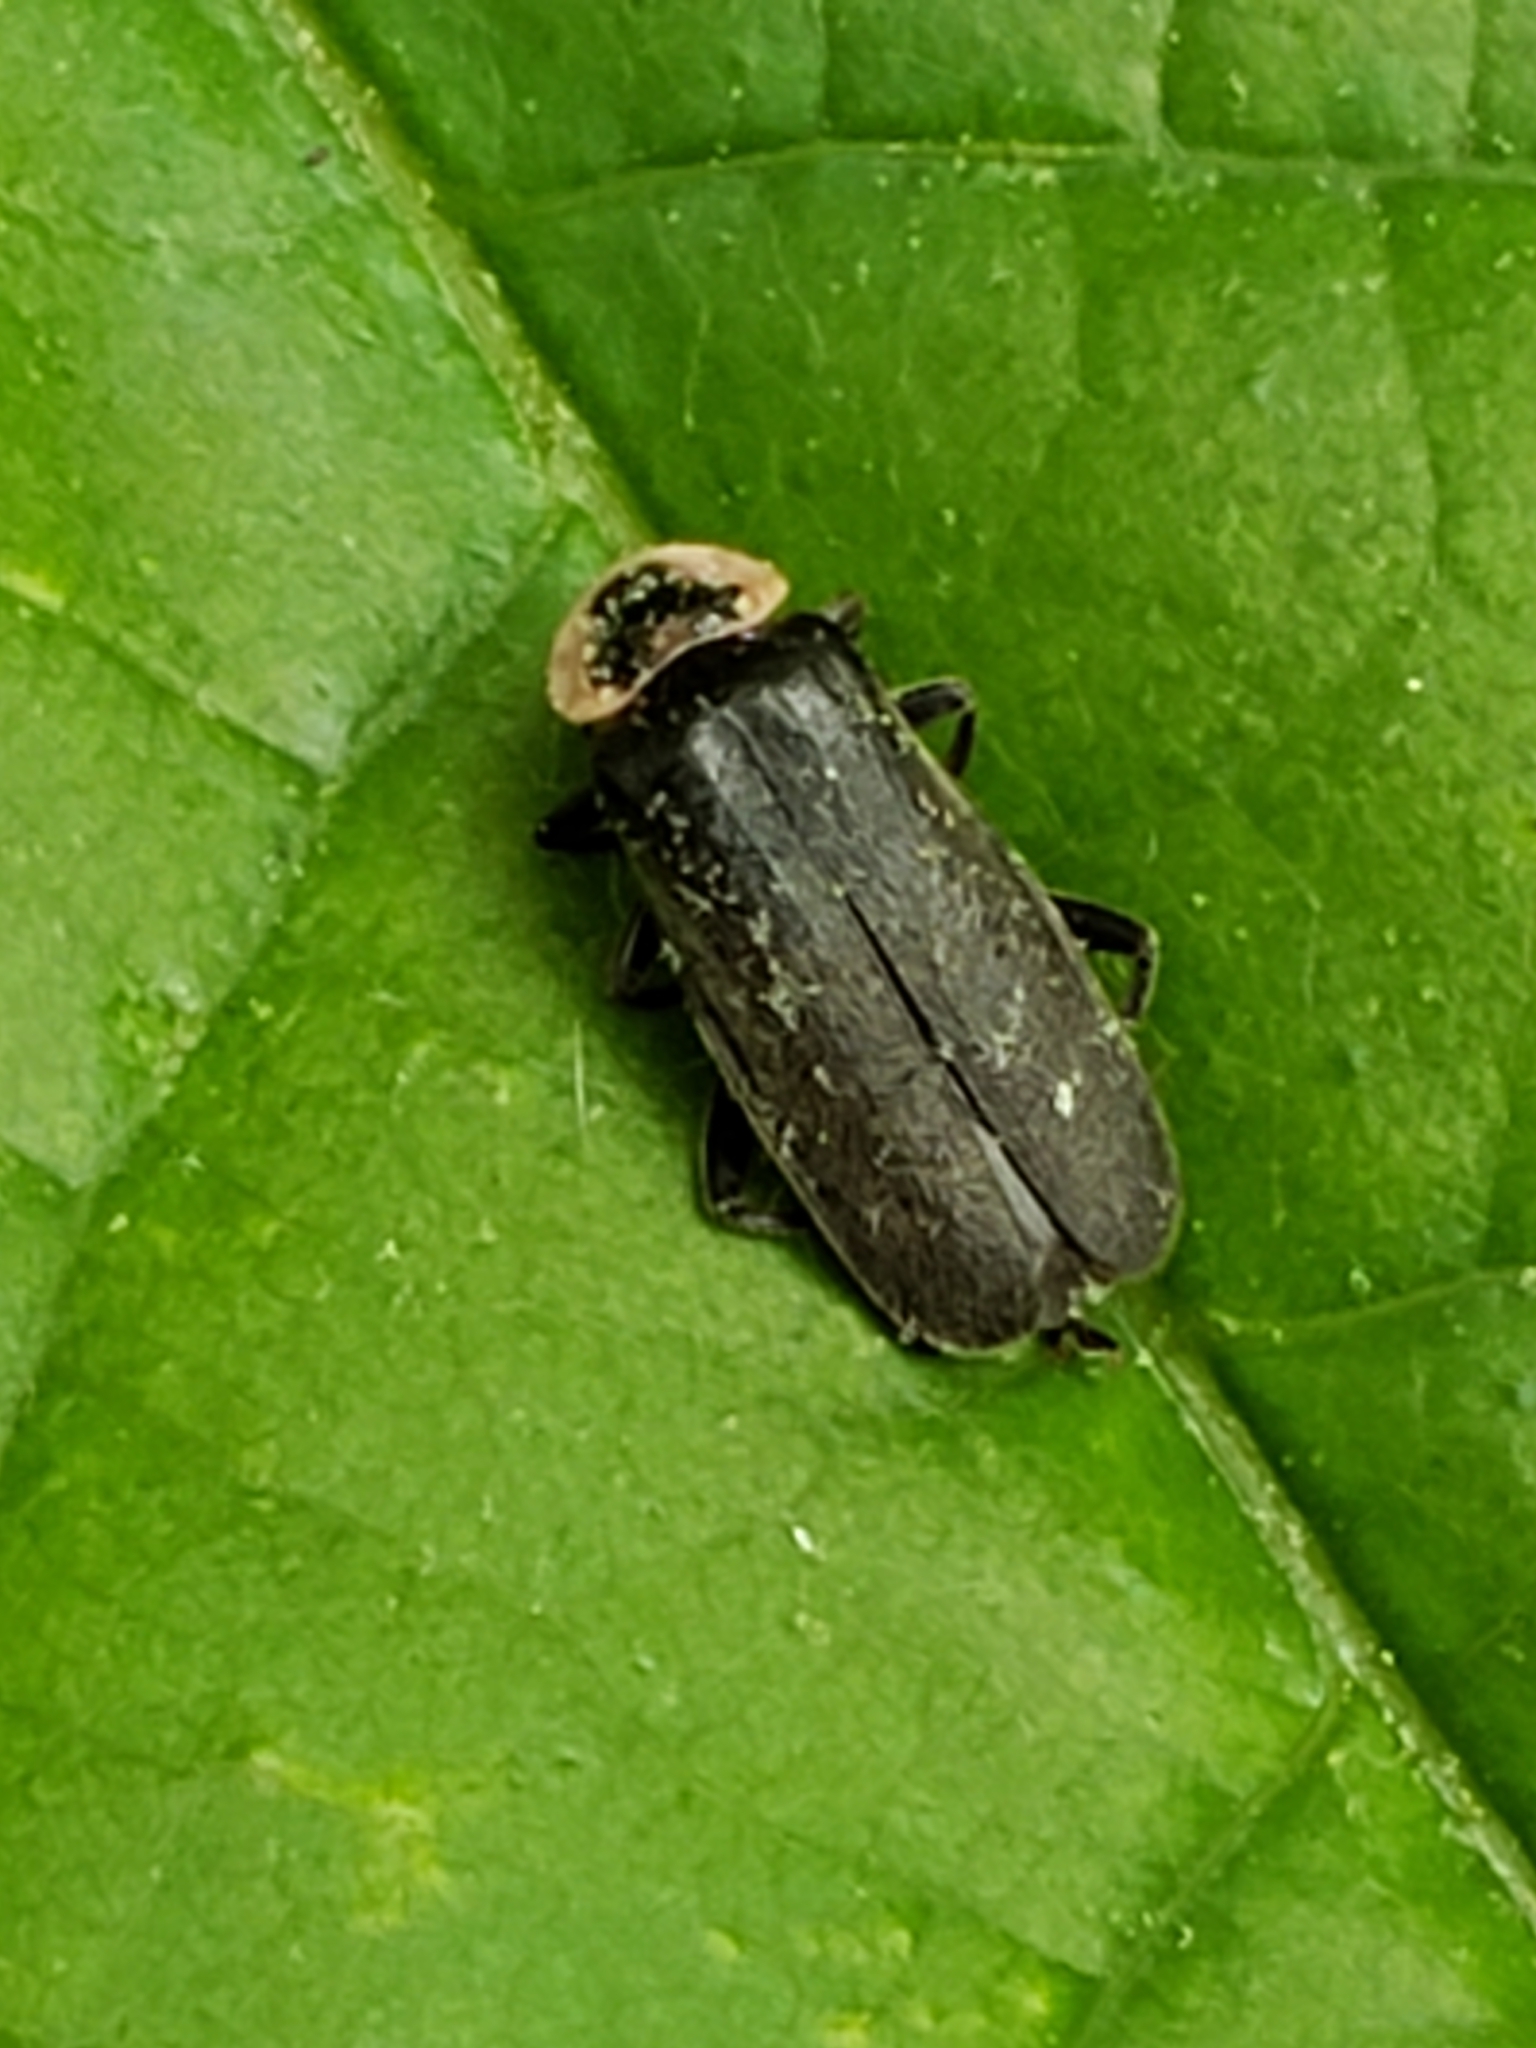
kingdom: Animalia
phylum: Arthropoda
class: Insecta
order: Coleoptera
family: Cantharidae
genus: Atalantycha
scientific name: Atalantycha neglecta
